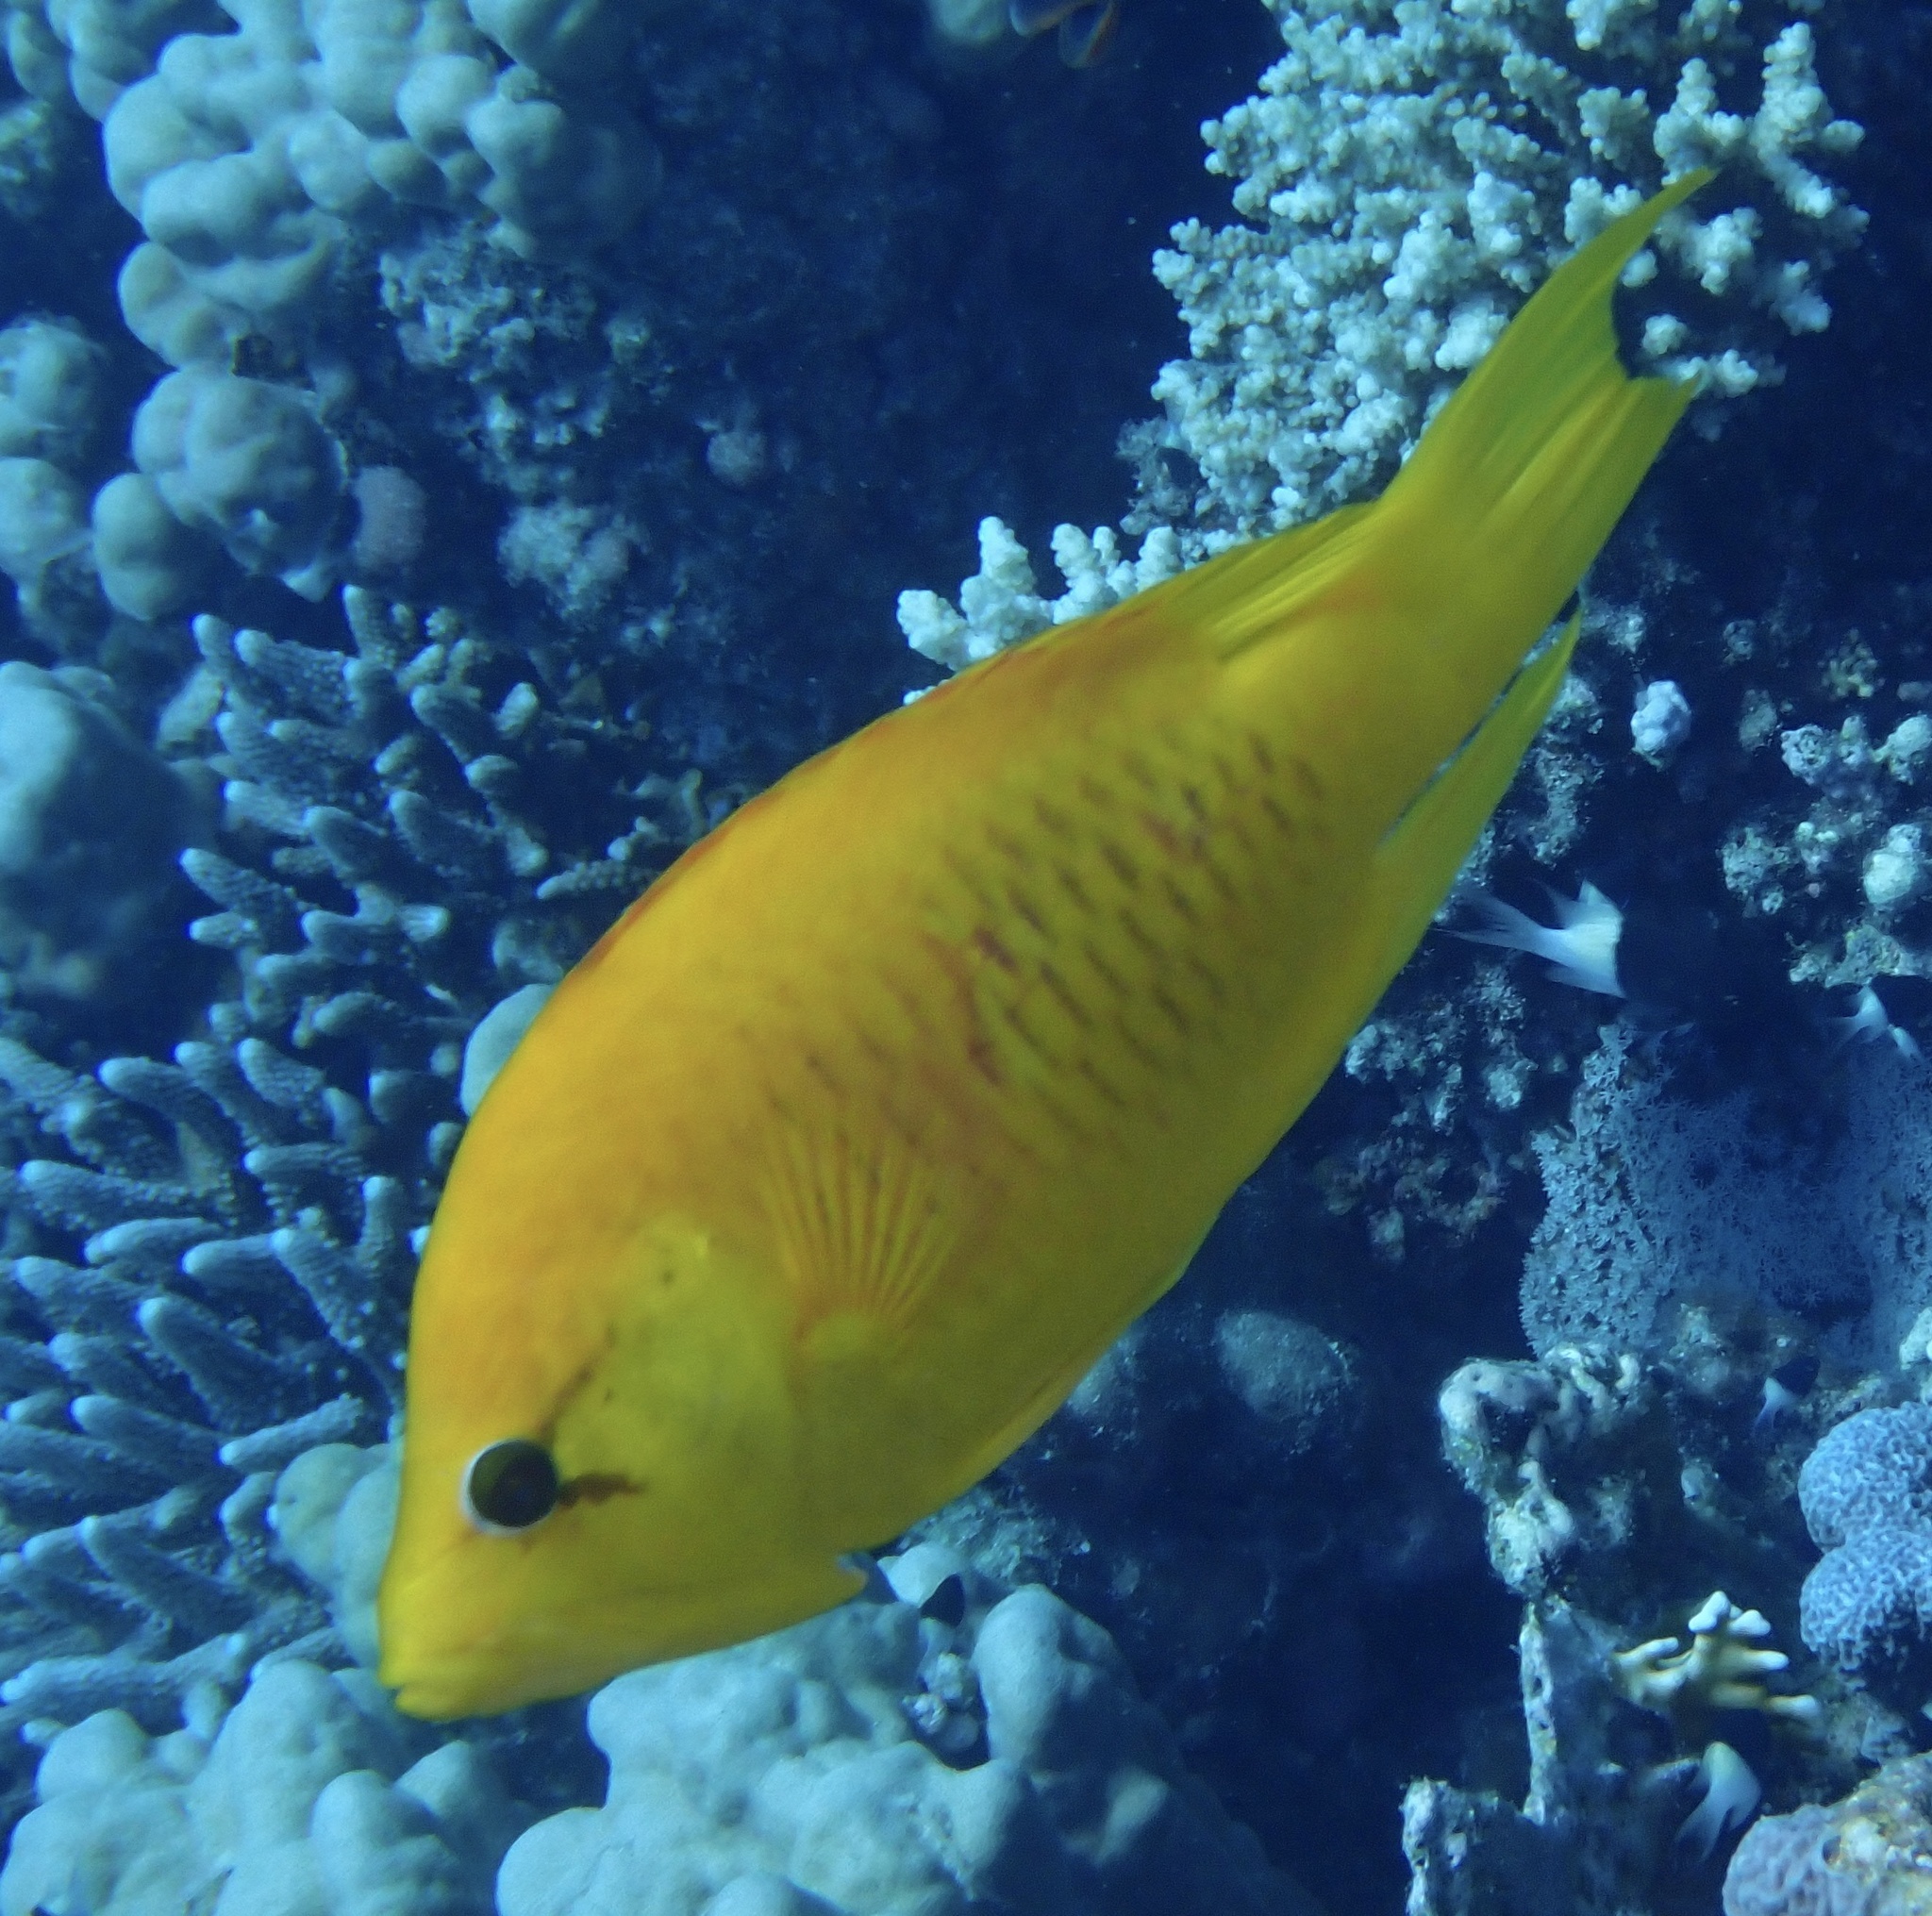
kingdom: Animalia
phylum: Chordata
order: Perciformes
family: Labridae
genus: Epibulus
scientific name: Epibulus insidiator
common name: Slingjaw wrasse
